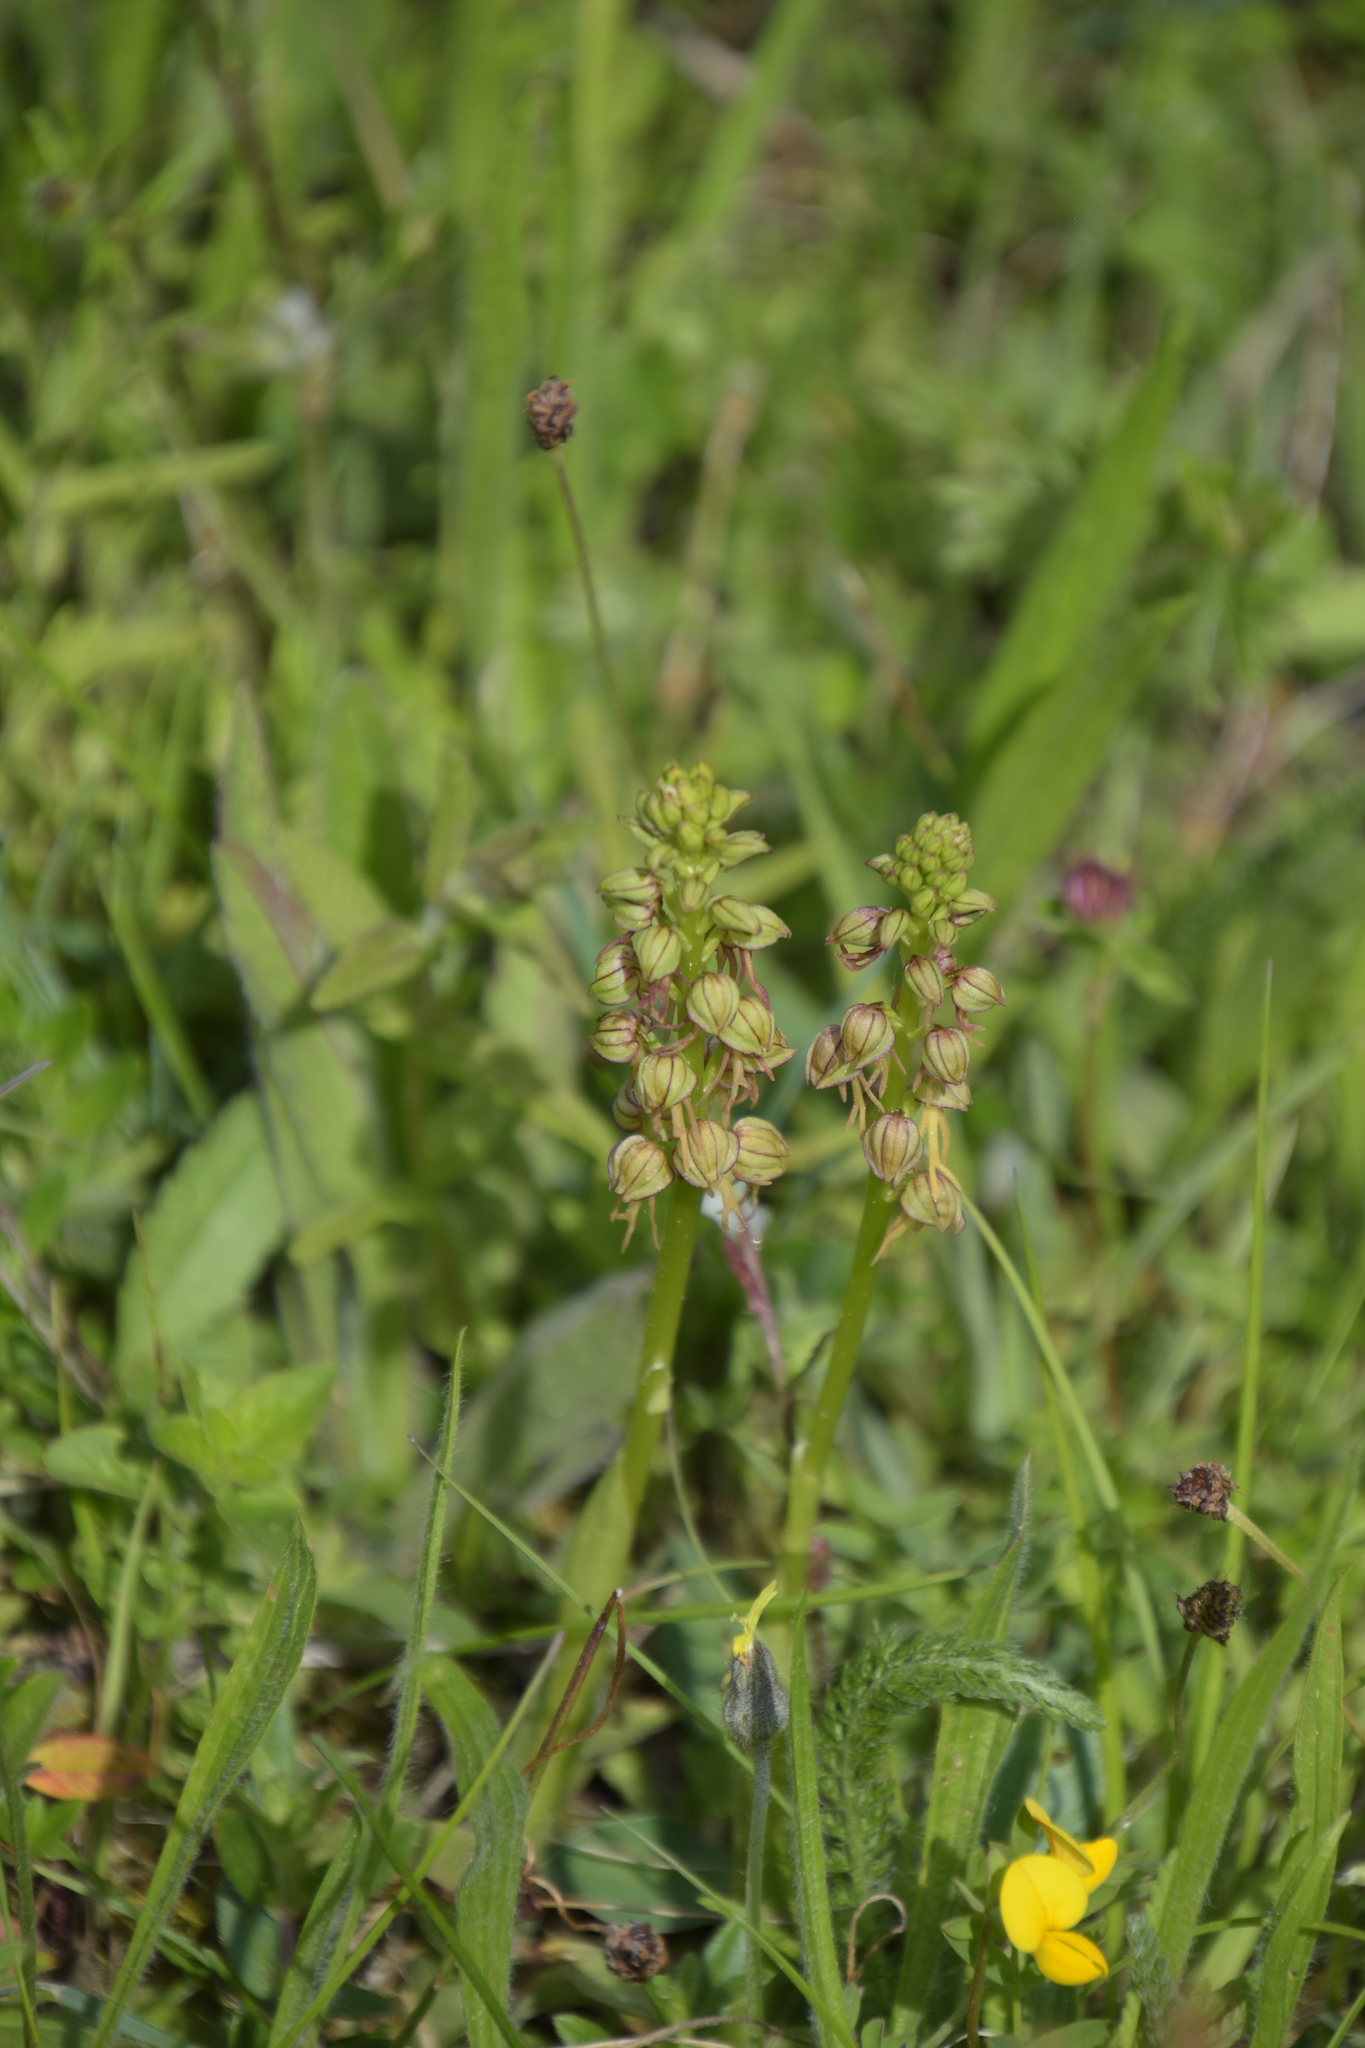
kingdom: Plantae
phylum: Tracheophyta
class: Liliopsida
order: Asparagales
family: Orchidaceae
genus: Orchis
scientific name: Orchis anthropophora
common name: Man orchid
